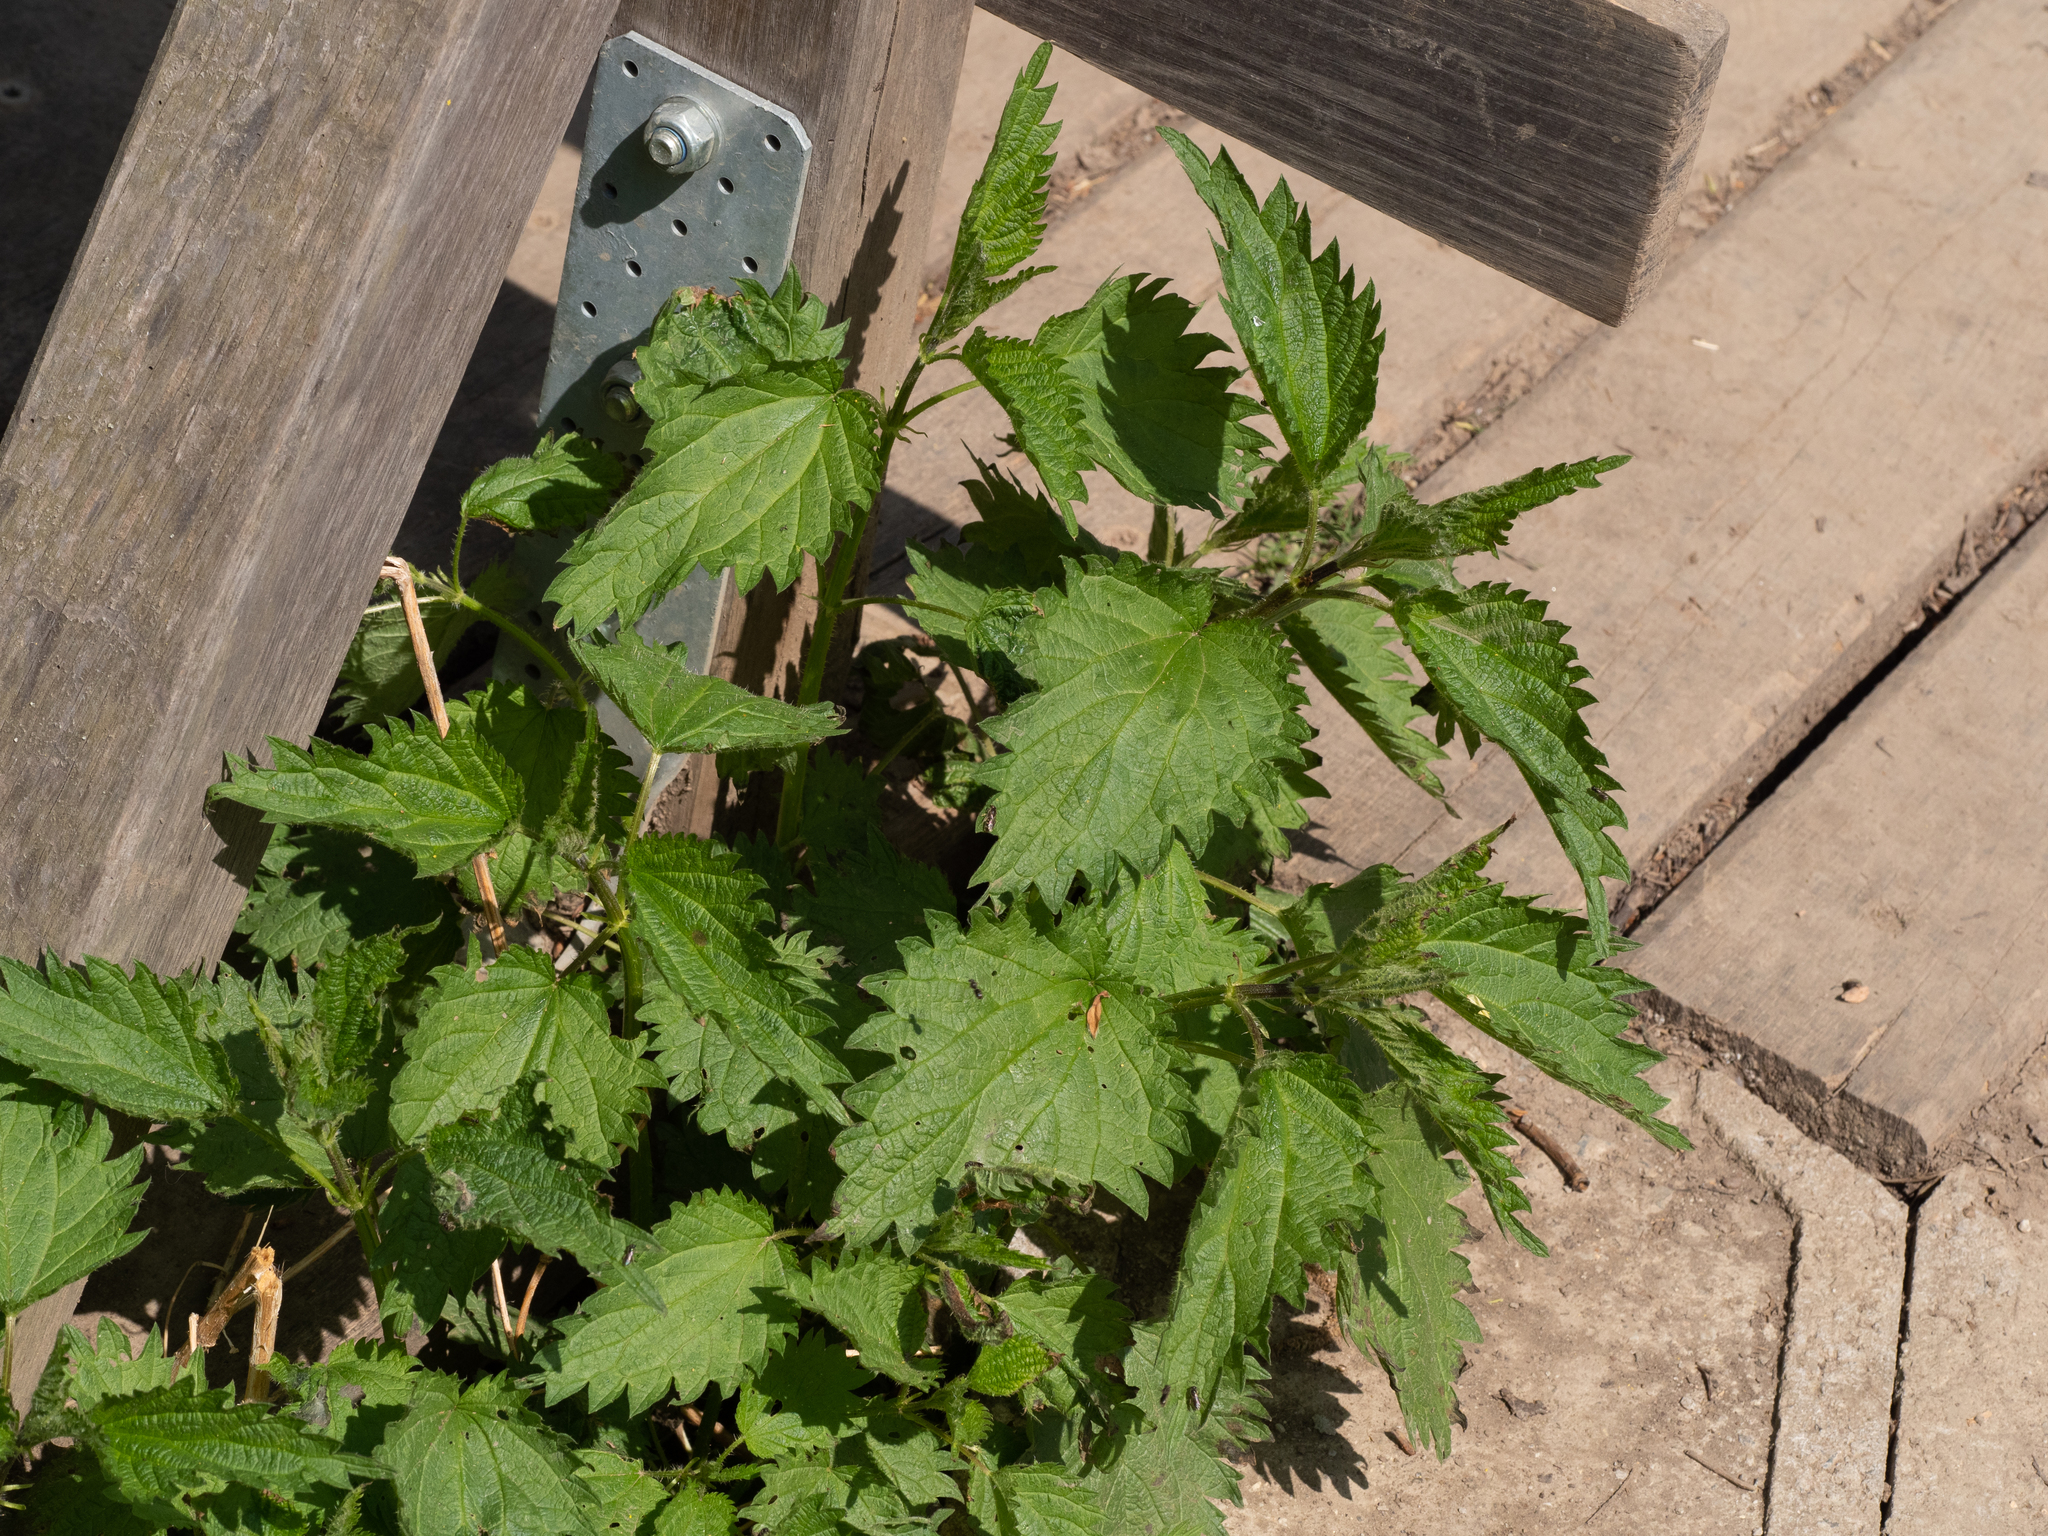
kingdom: Plantae
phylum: Tracheophyta
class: Magnoliopsida
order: Rosales
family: Urticaceae
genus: Urtica
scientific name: Urtica dioica
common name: Common nettle
